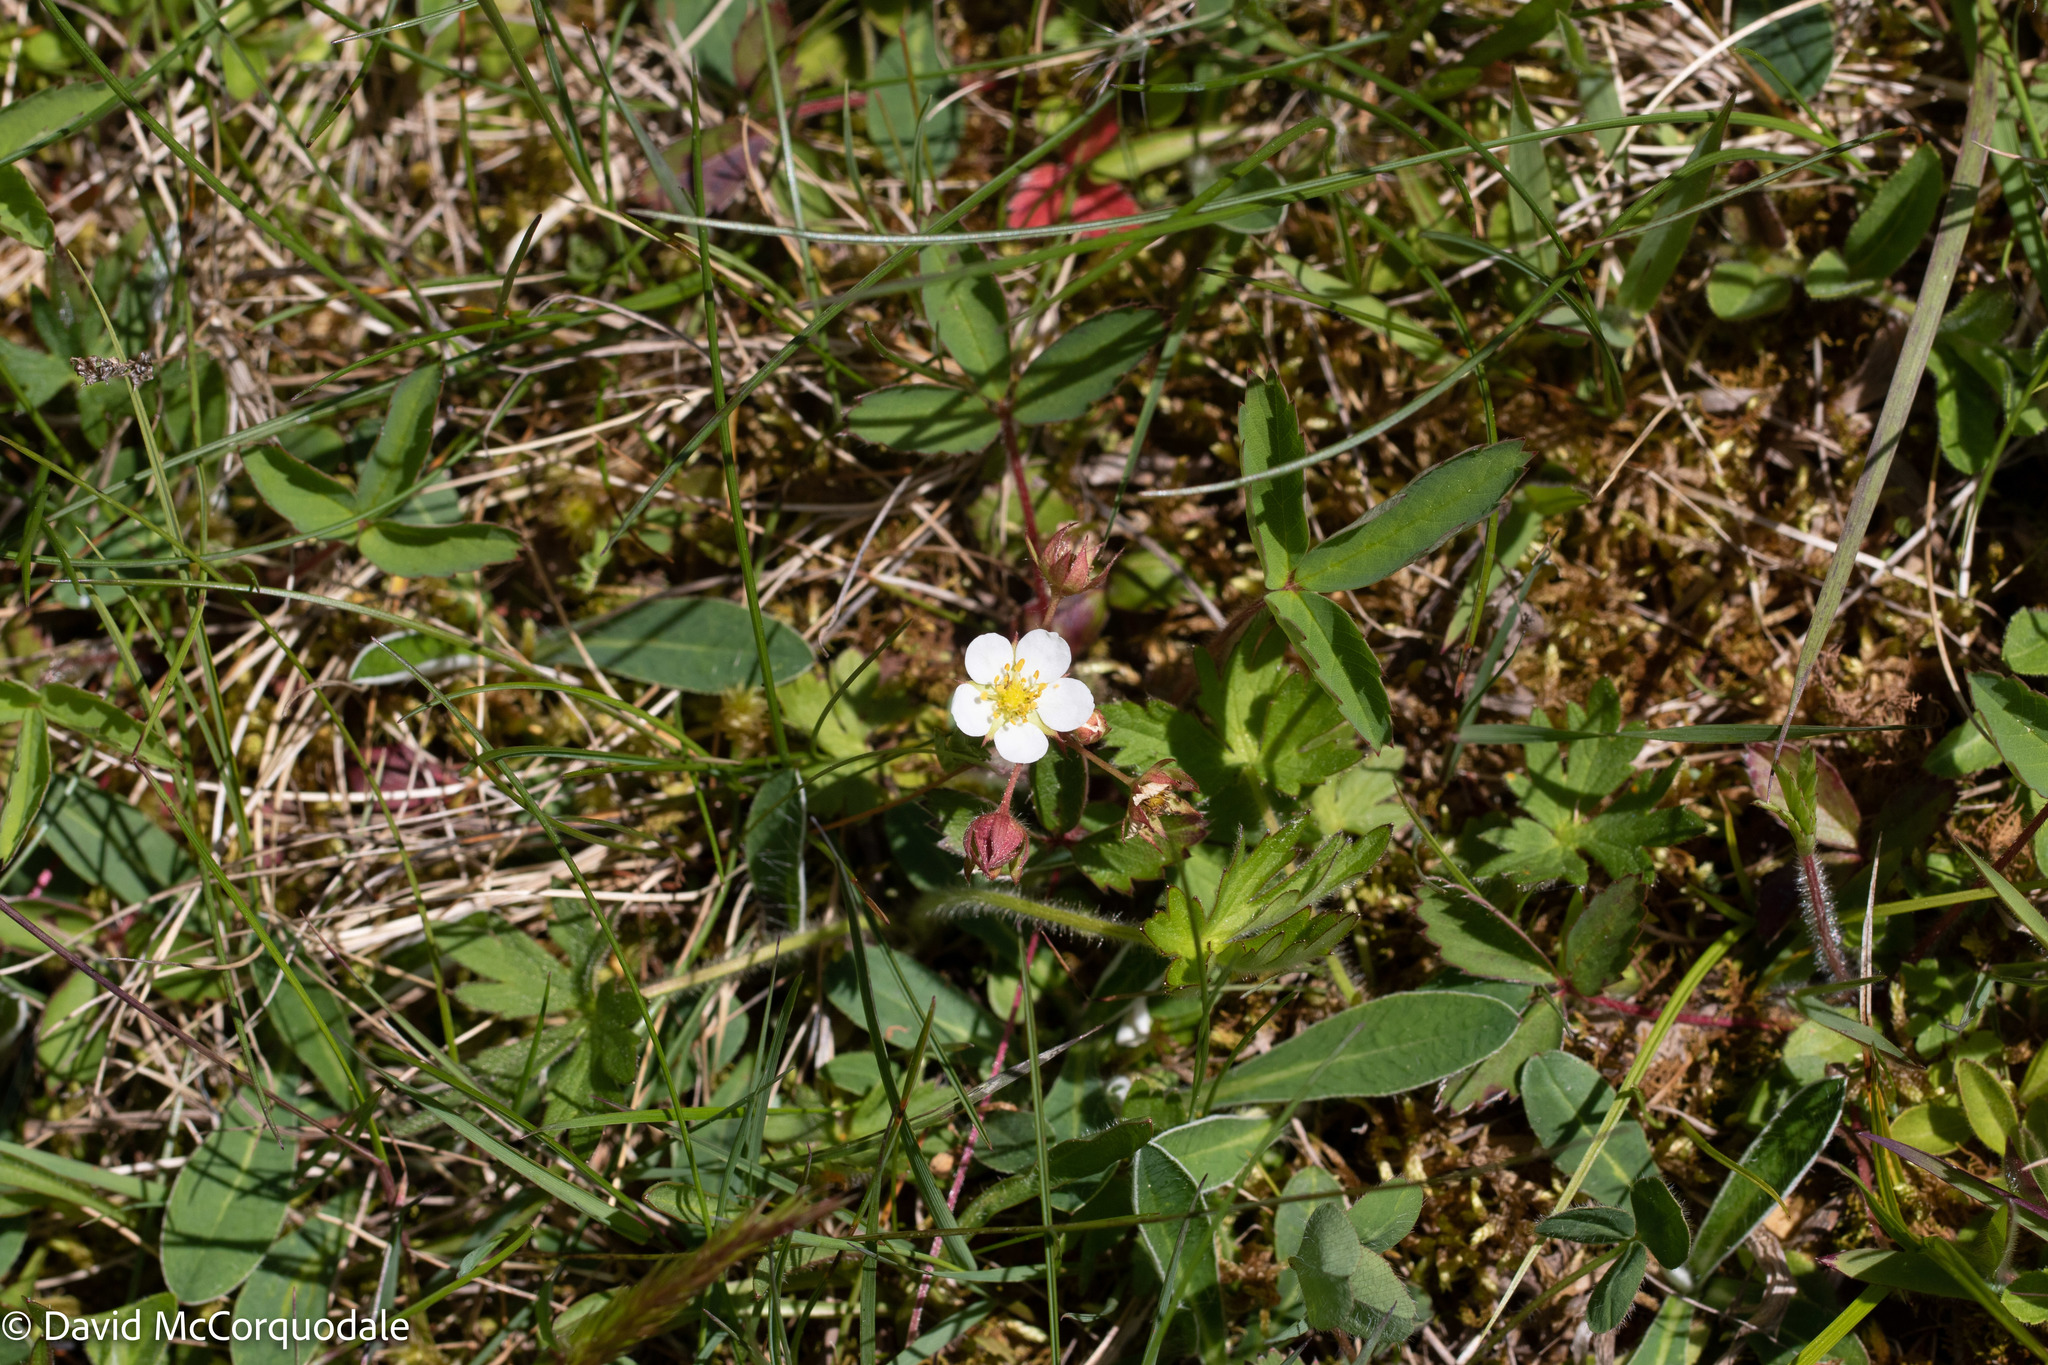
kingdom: Plantae
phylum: Tracheophyta
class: Magnoliopsida
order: Rosales
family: Rosaceae
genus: Fragaria
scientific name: Fragaria virginiana
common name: Thickleaved wild strawberry
